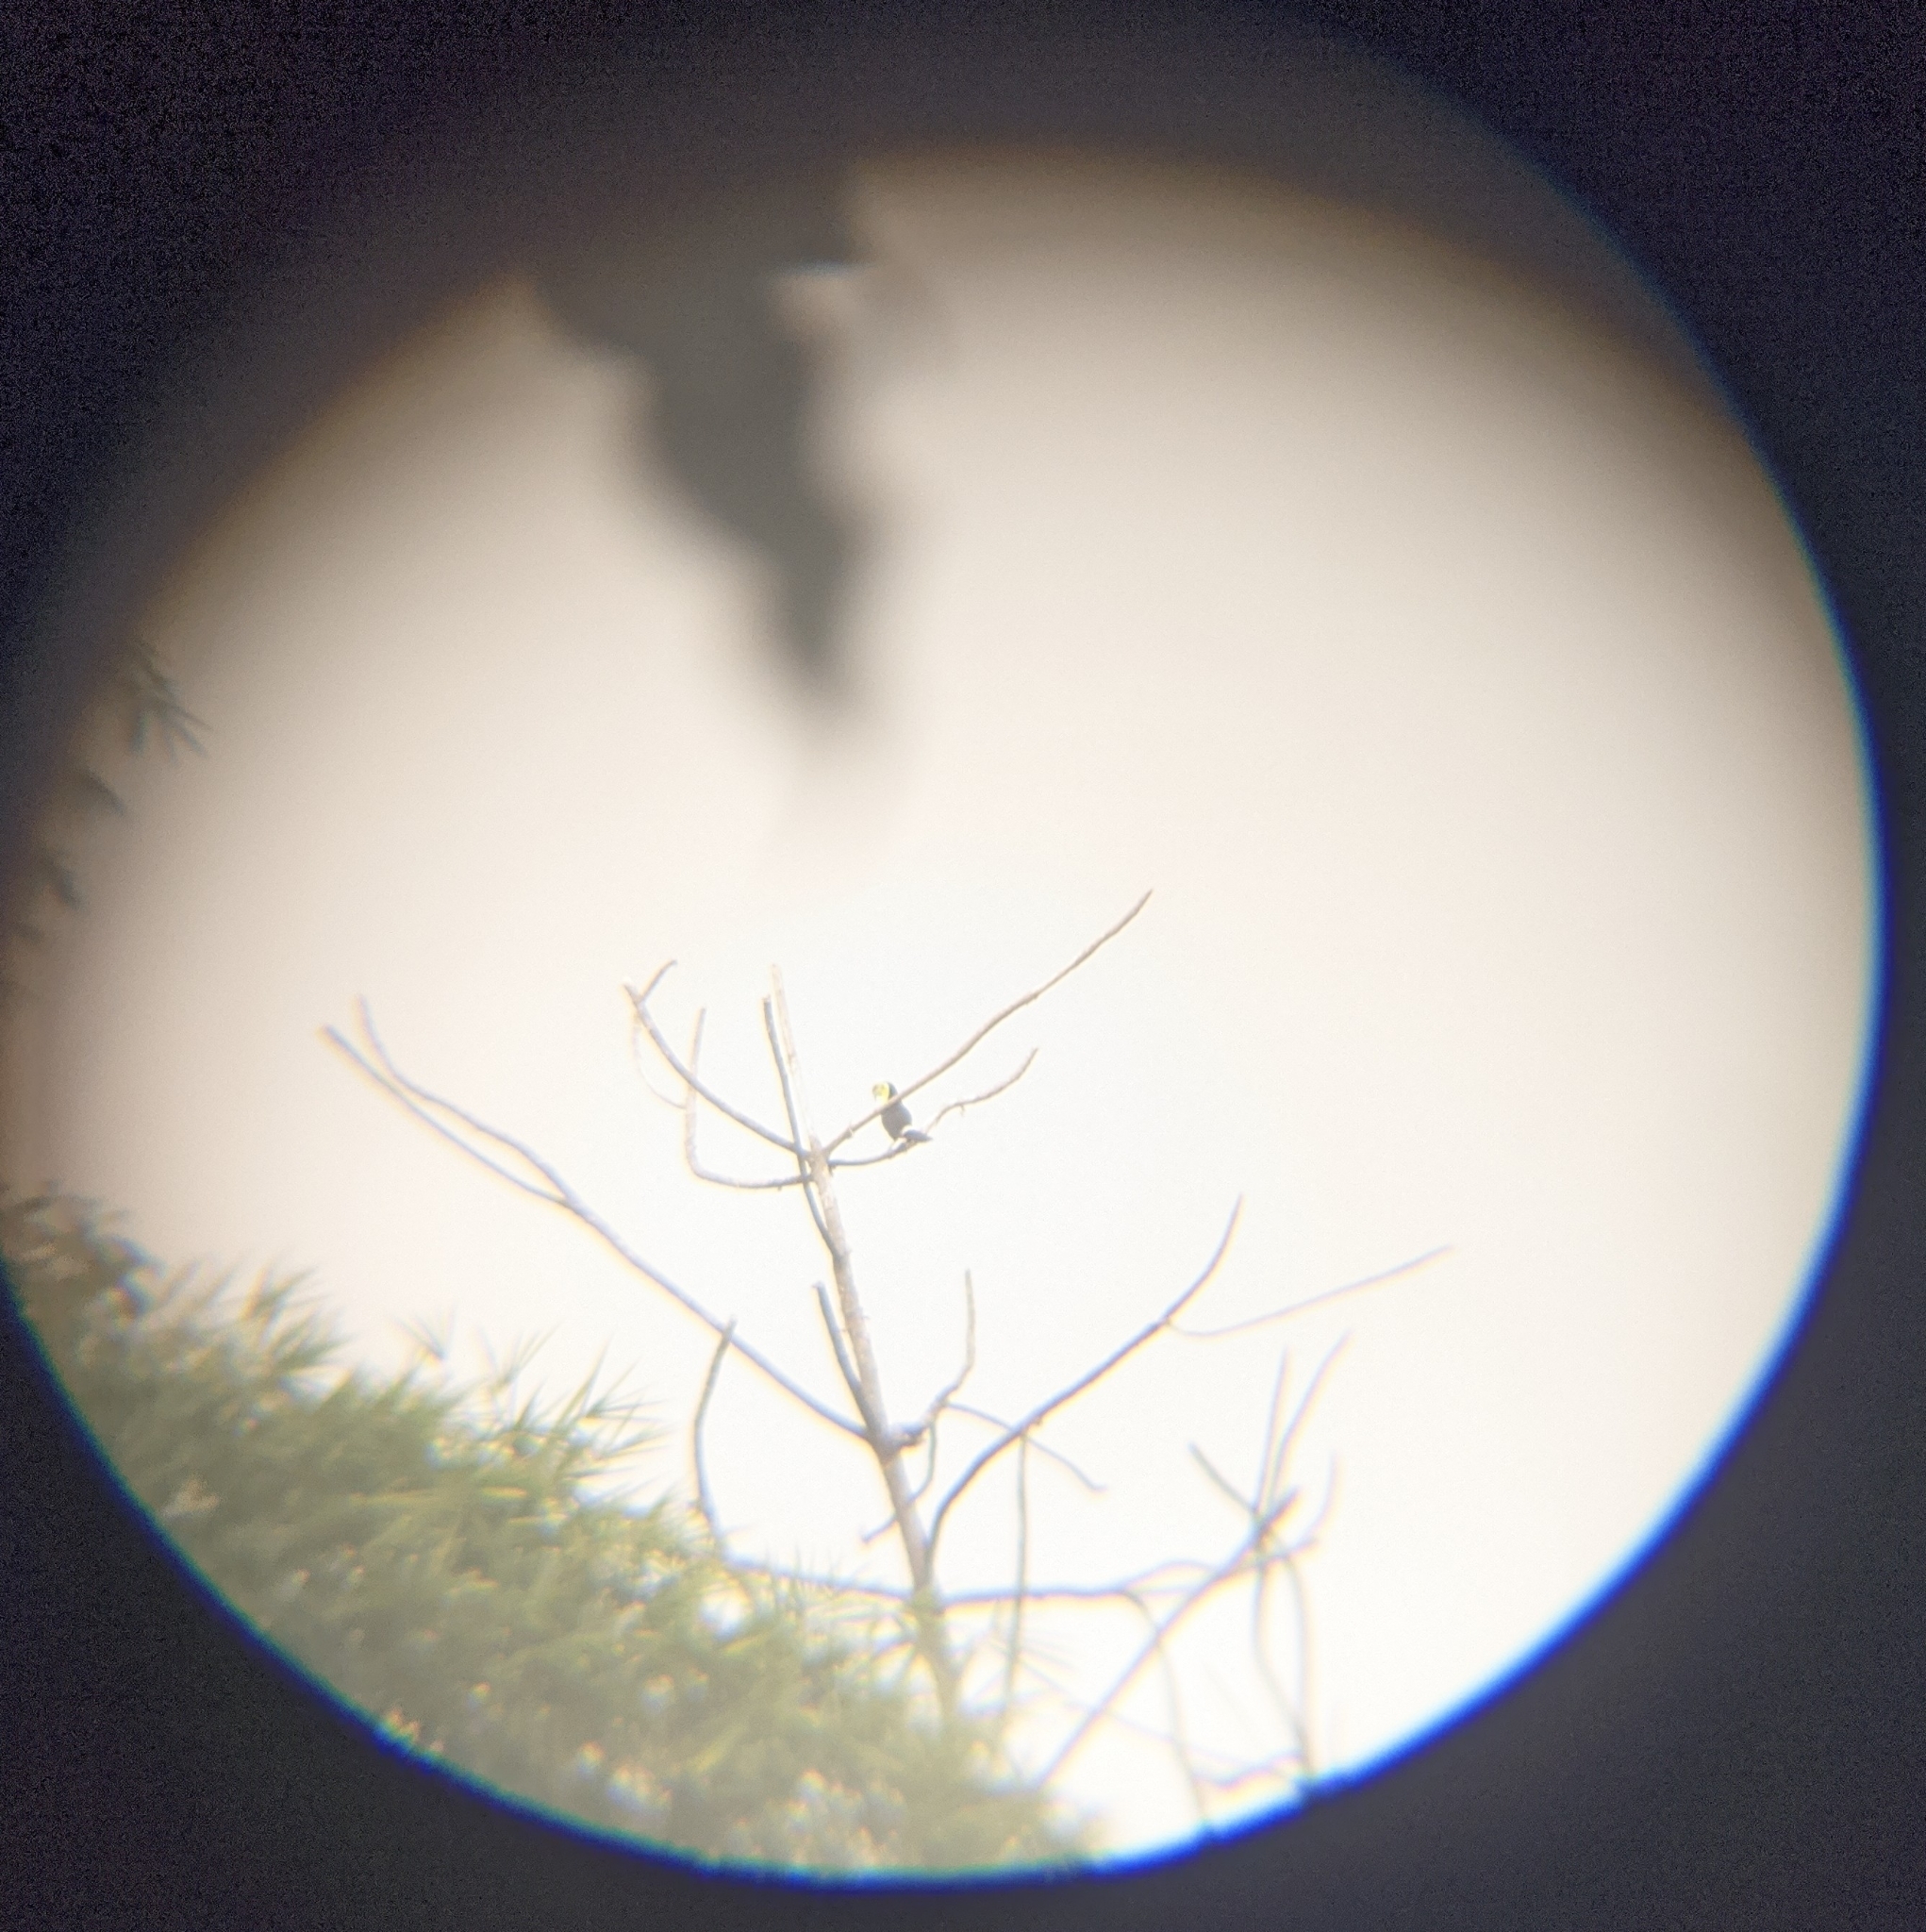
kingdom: Animalia
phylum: Chordata
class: Aves
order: Piciformes
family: Ramphastidae
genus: Ramphastos
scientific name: Ramphastos sulfuratus
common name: Keel-billed toucan
